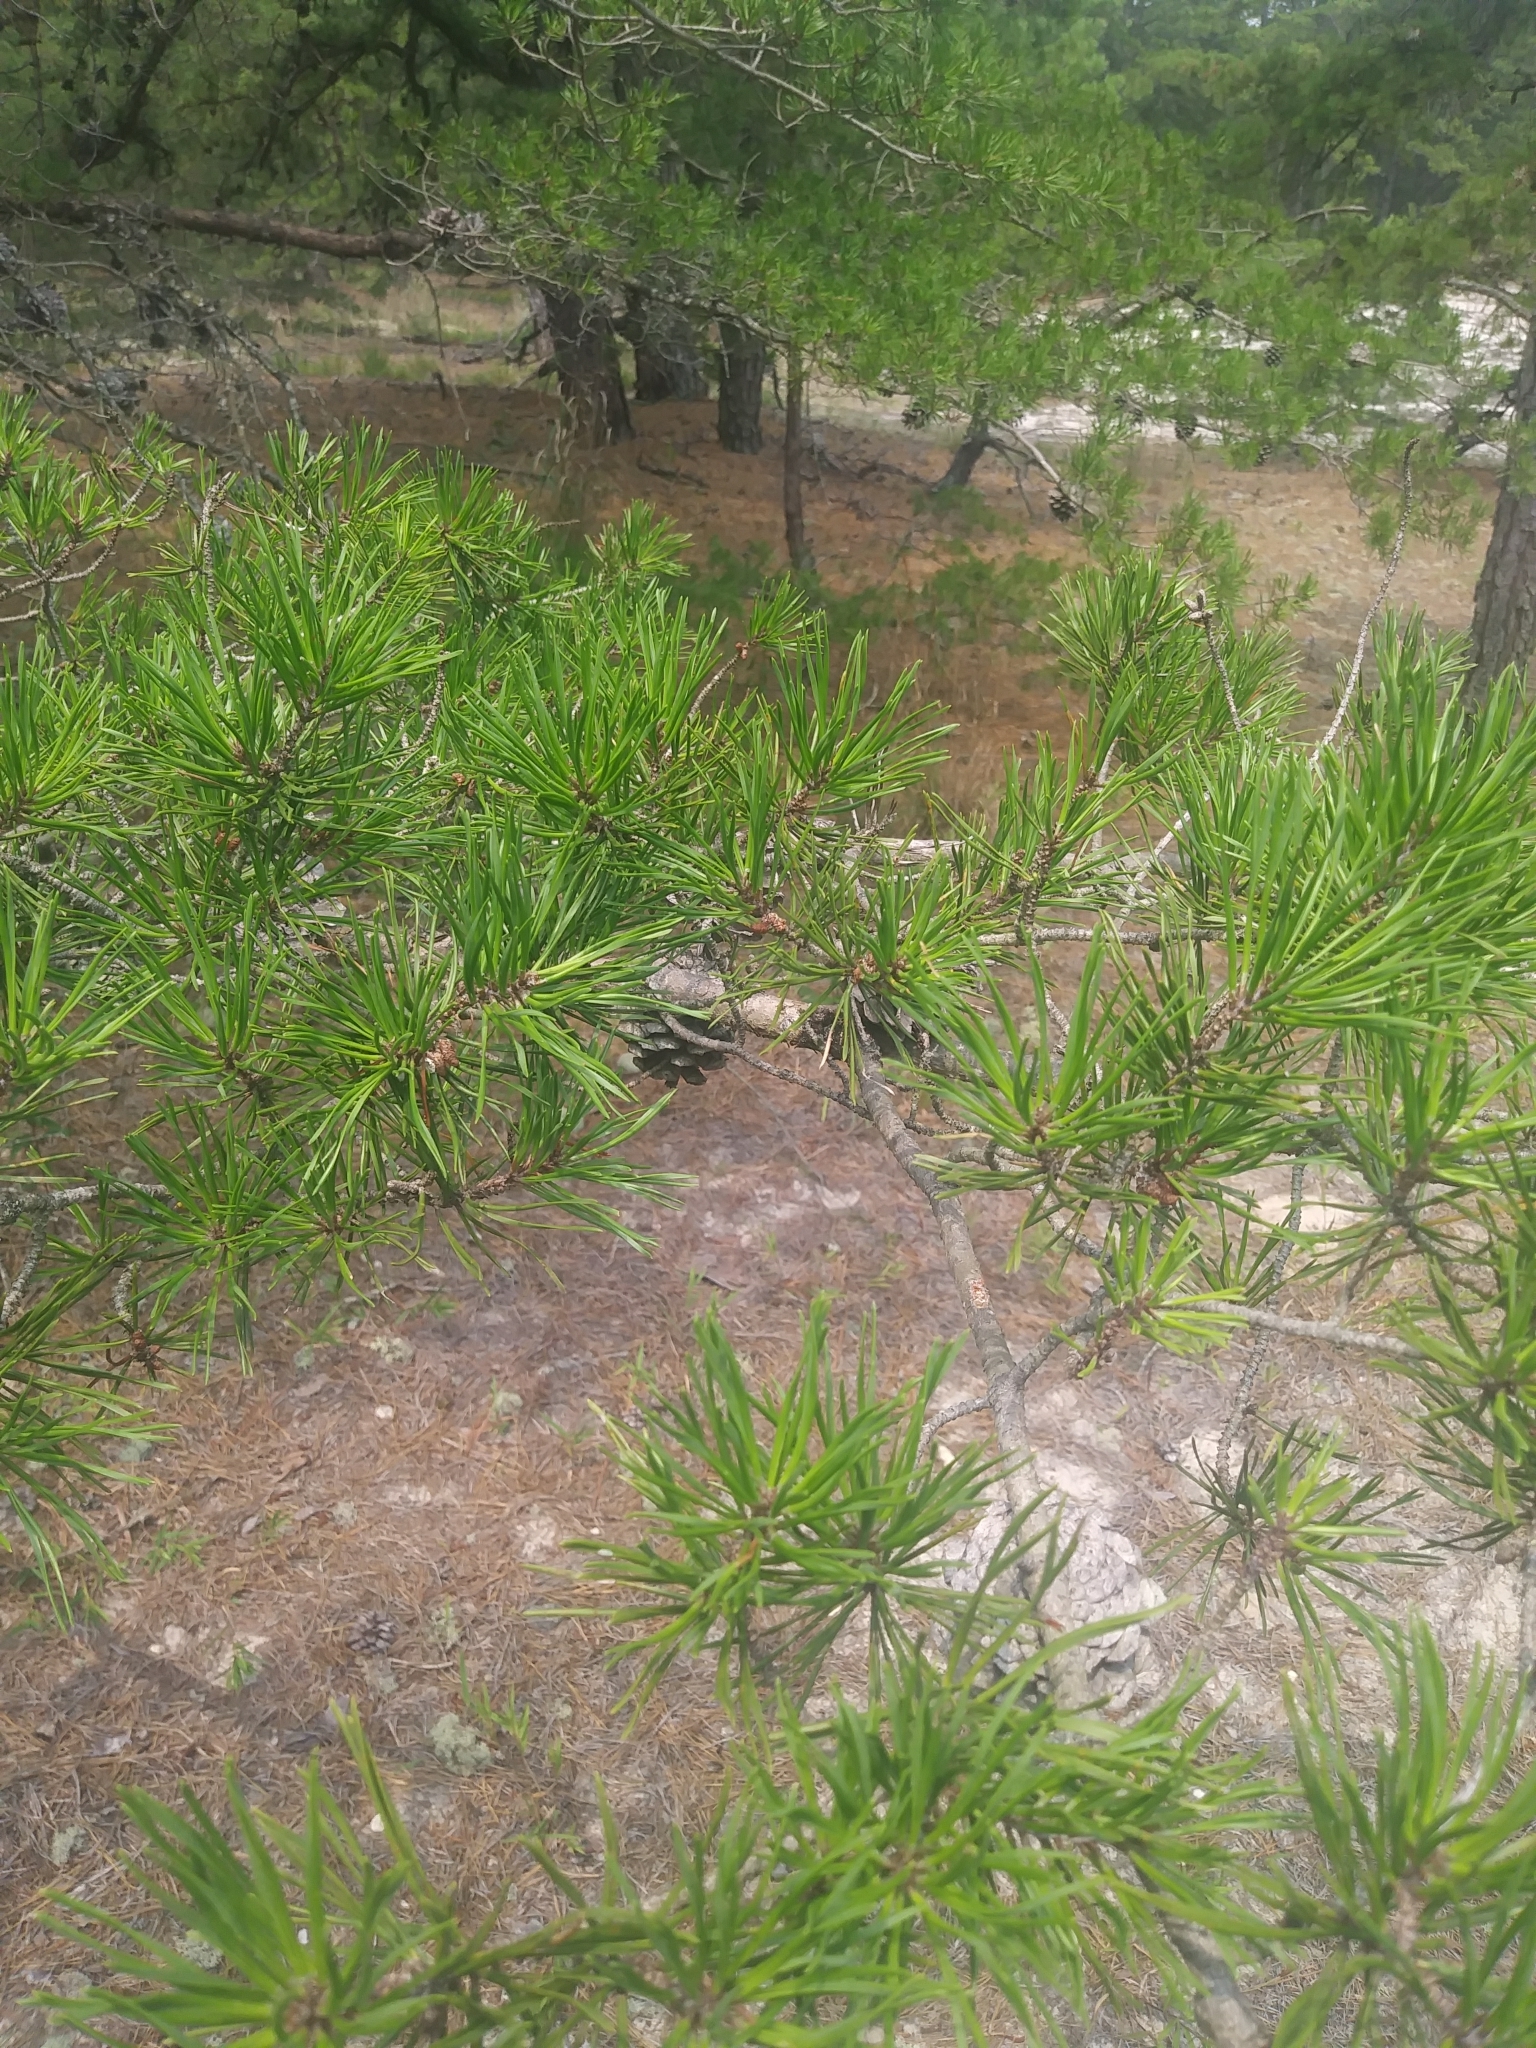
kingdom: Plantae
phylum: Tracheophyta
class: Pinopsida
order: Pinales
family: Pinaceae
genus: Pinus
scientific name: Pinus virginiana
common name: Scrub pine
